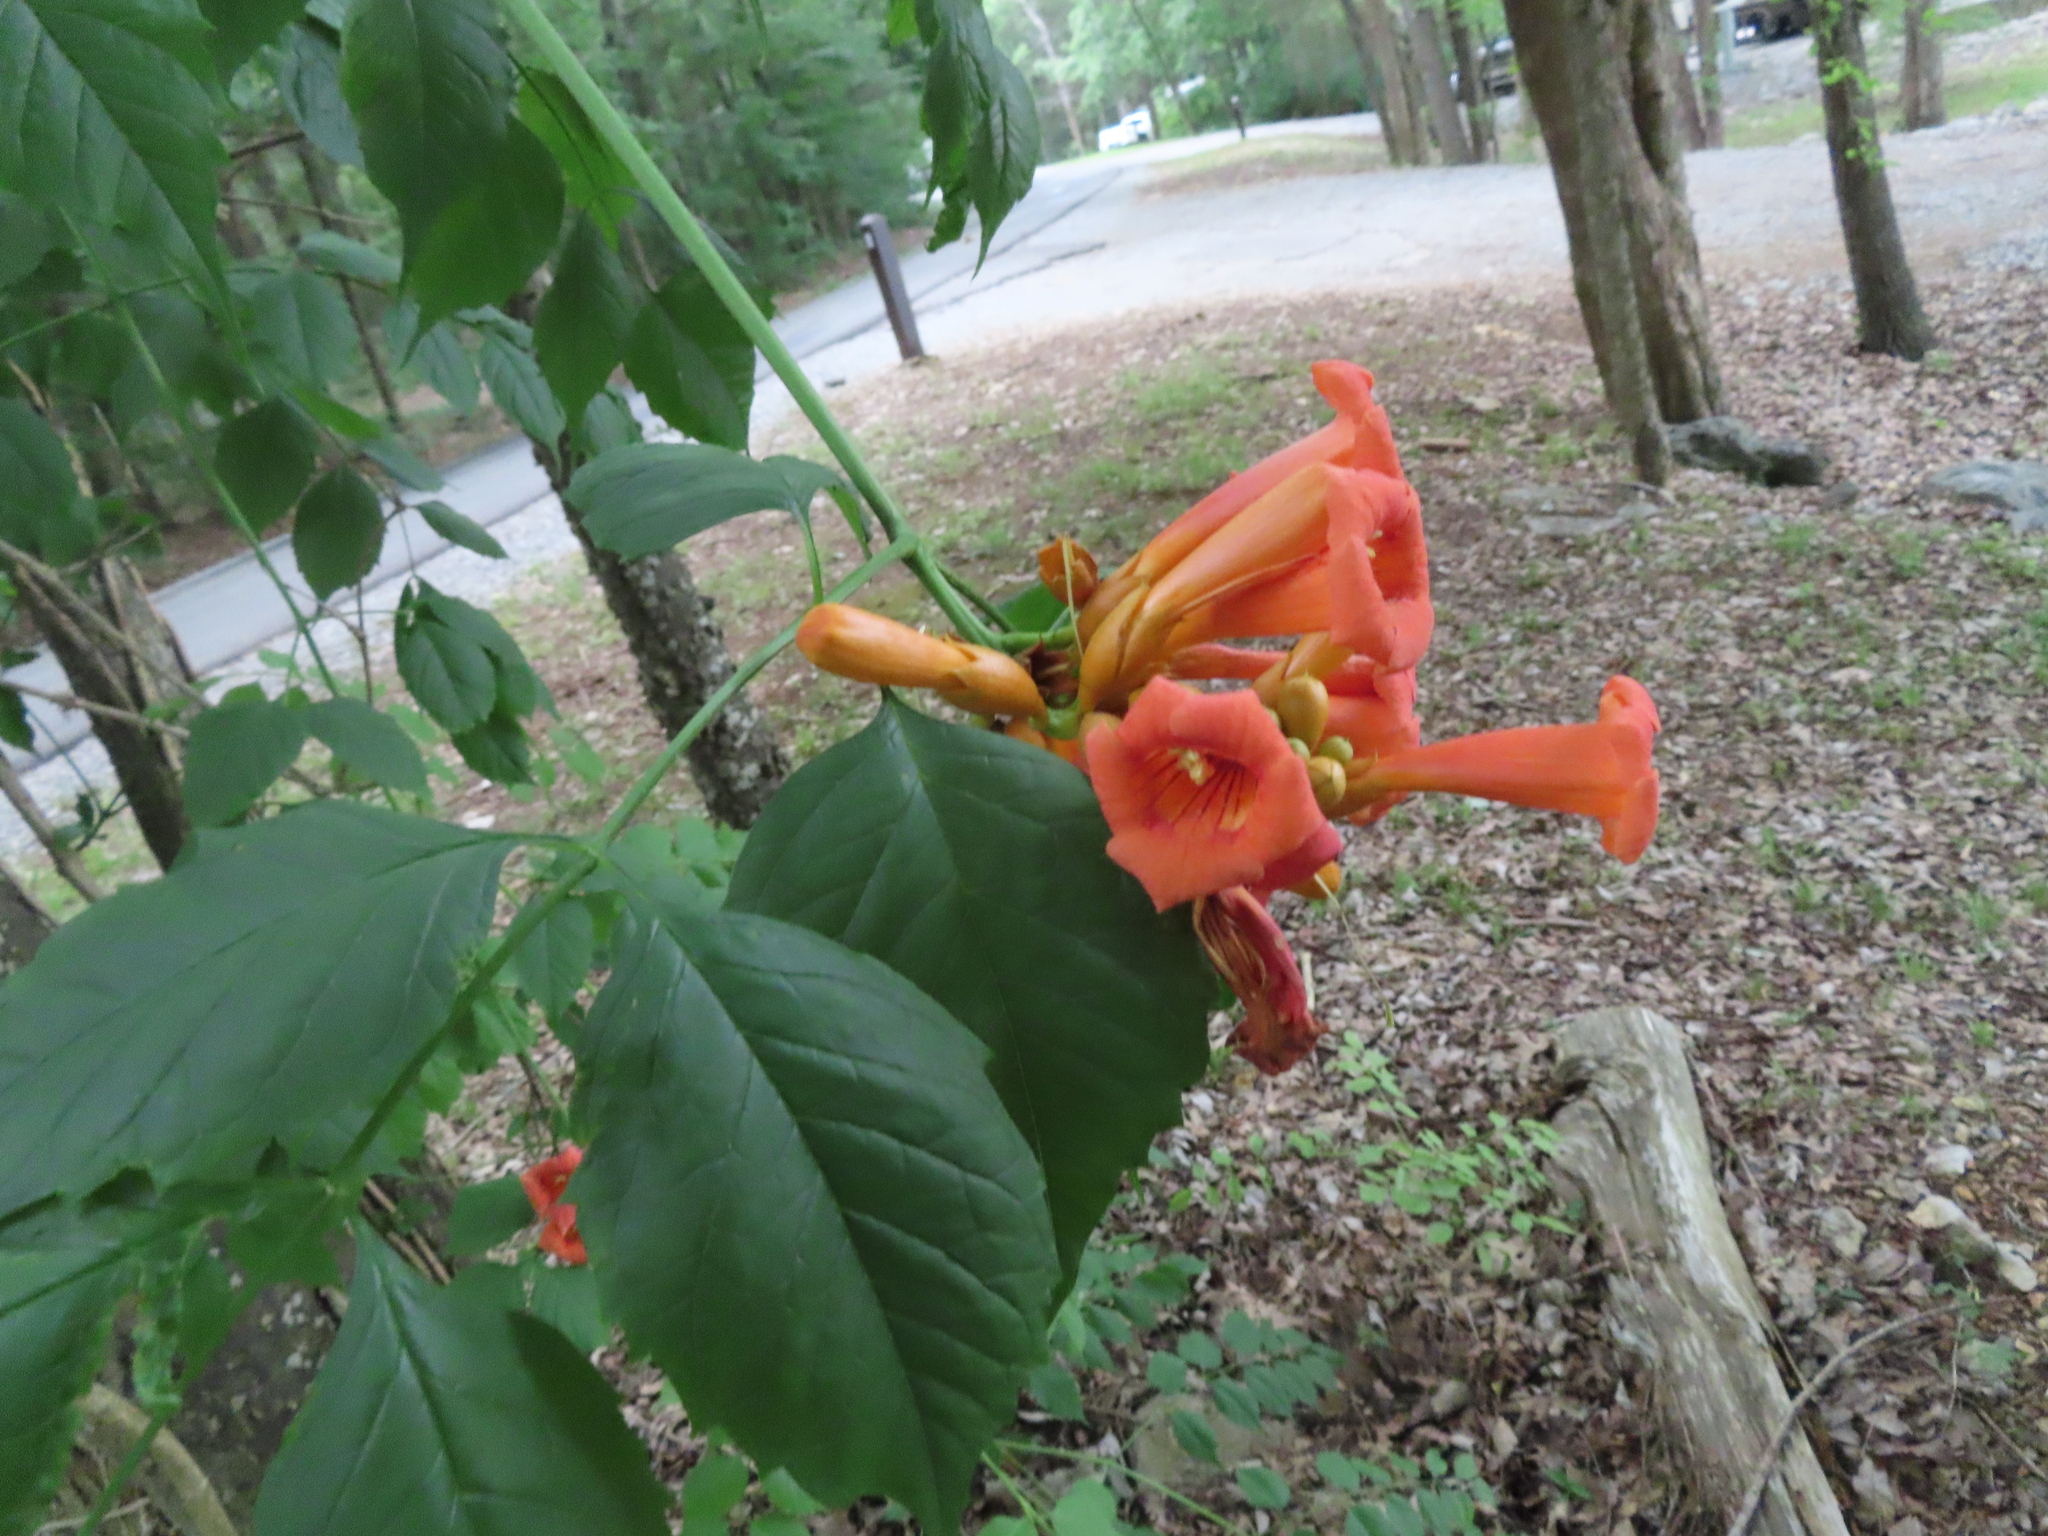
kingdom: Plantae
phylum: Tracheophyta
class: Magnoliopsida
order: Lamiales
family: Bignoniaceae
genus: Campsis
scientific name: Campsis radicans
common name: Trumpet-creeper
